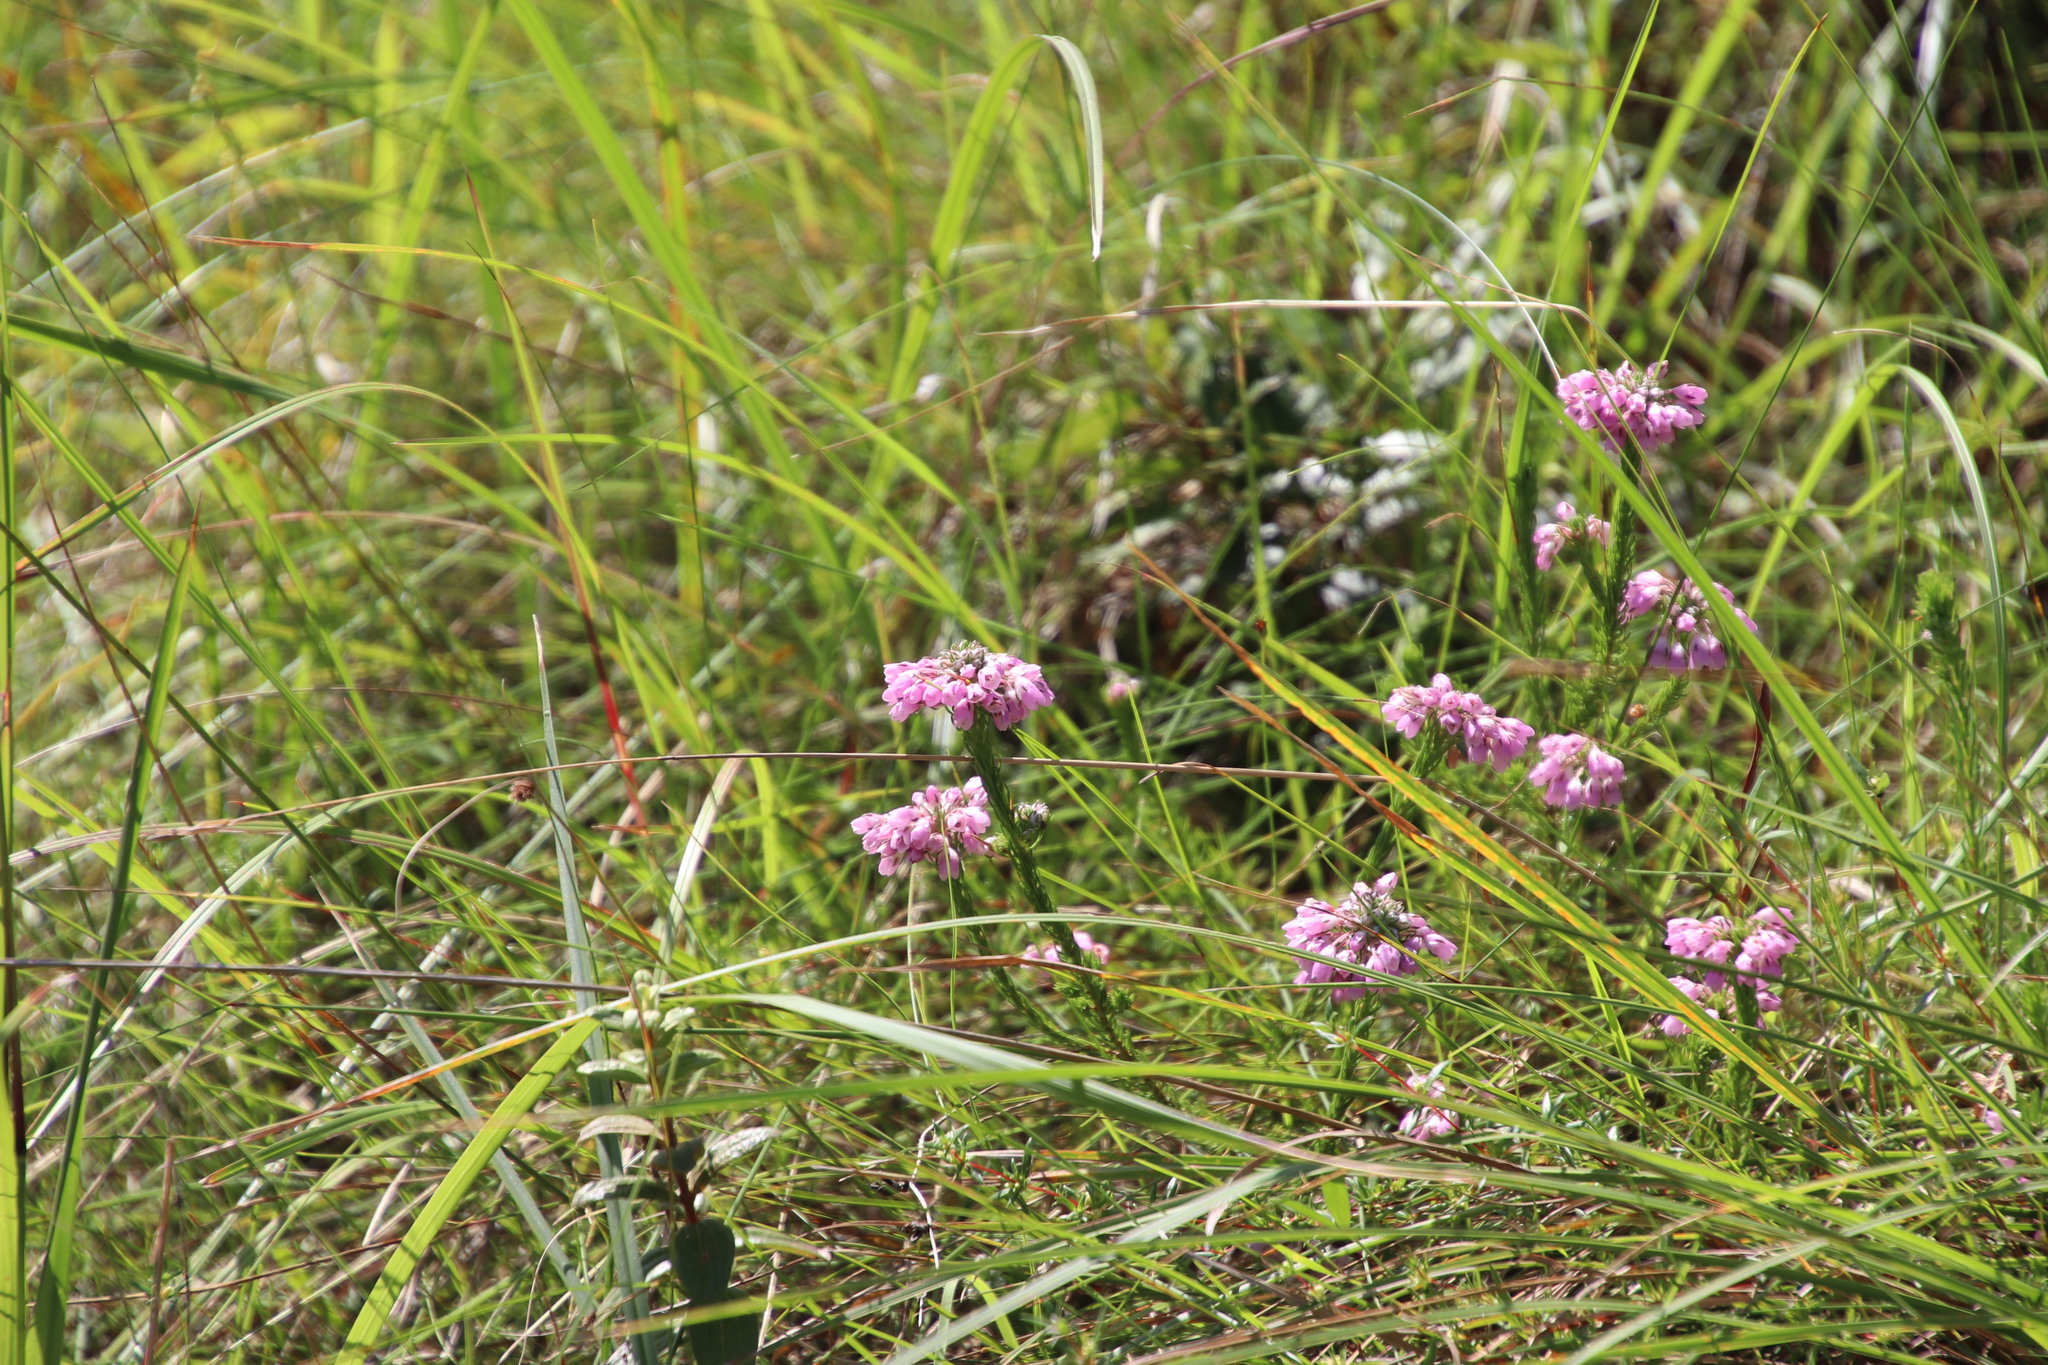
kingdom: Plantae
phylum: Tracheophyta
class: Magnoliopsida
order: Ericales
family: Ericaceae
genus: Erica
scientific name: Erica cubica
